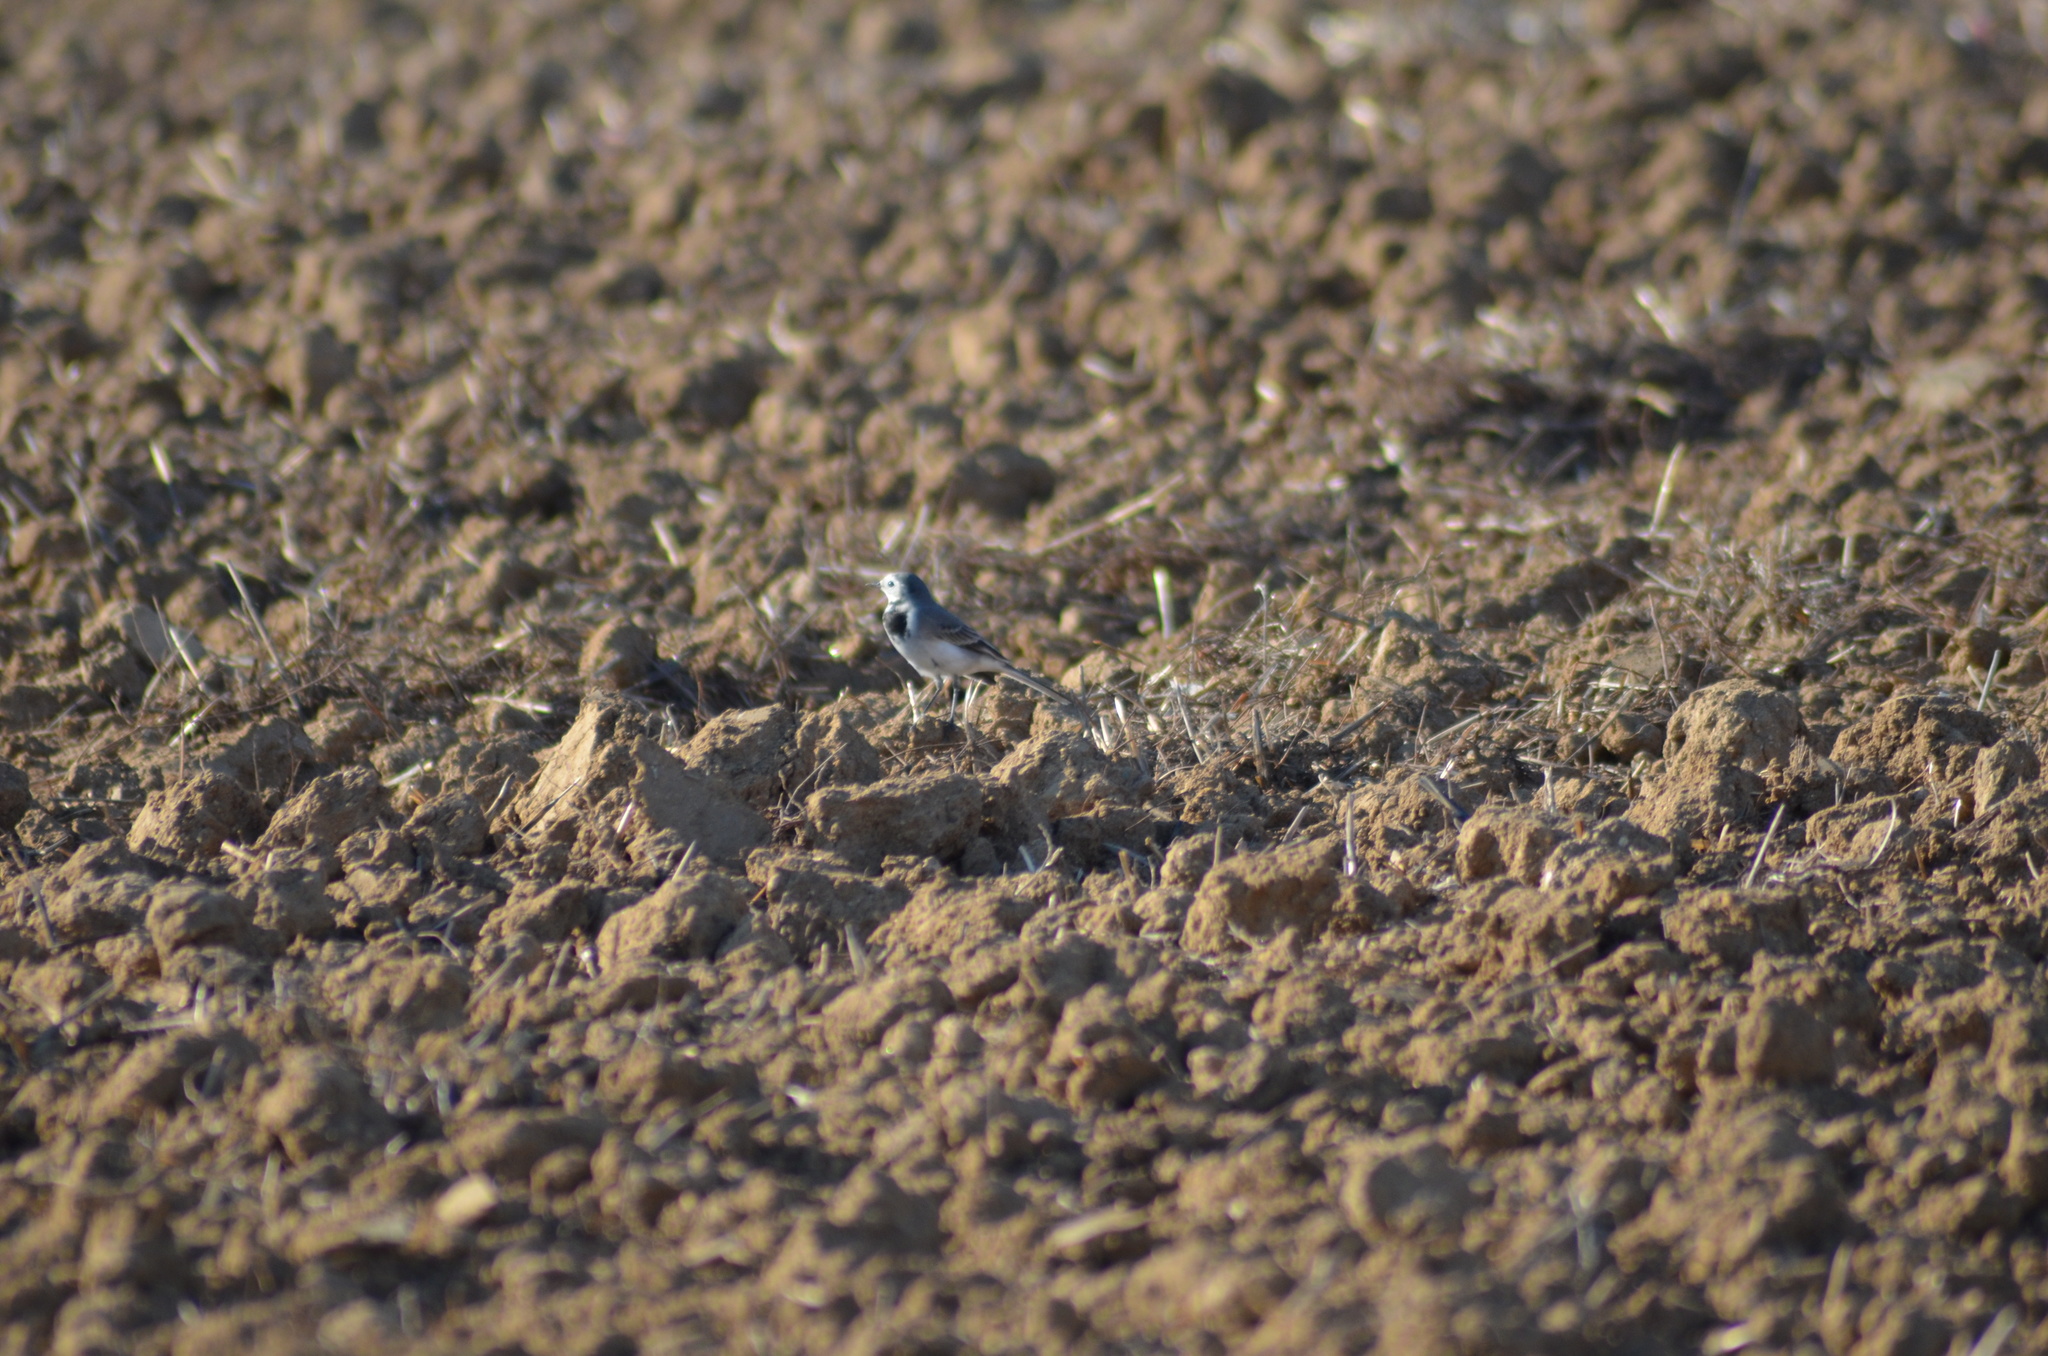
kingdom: Animalia
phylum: Chordata
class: Aves
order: Passeriformes
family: Motacillidae
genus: Motacilla
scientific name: Motacilla alba
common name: White wagtail
